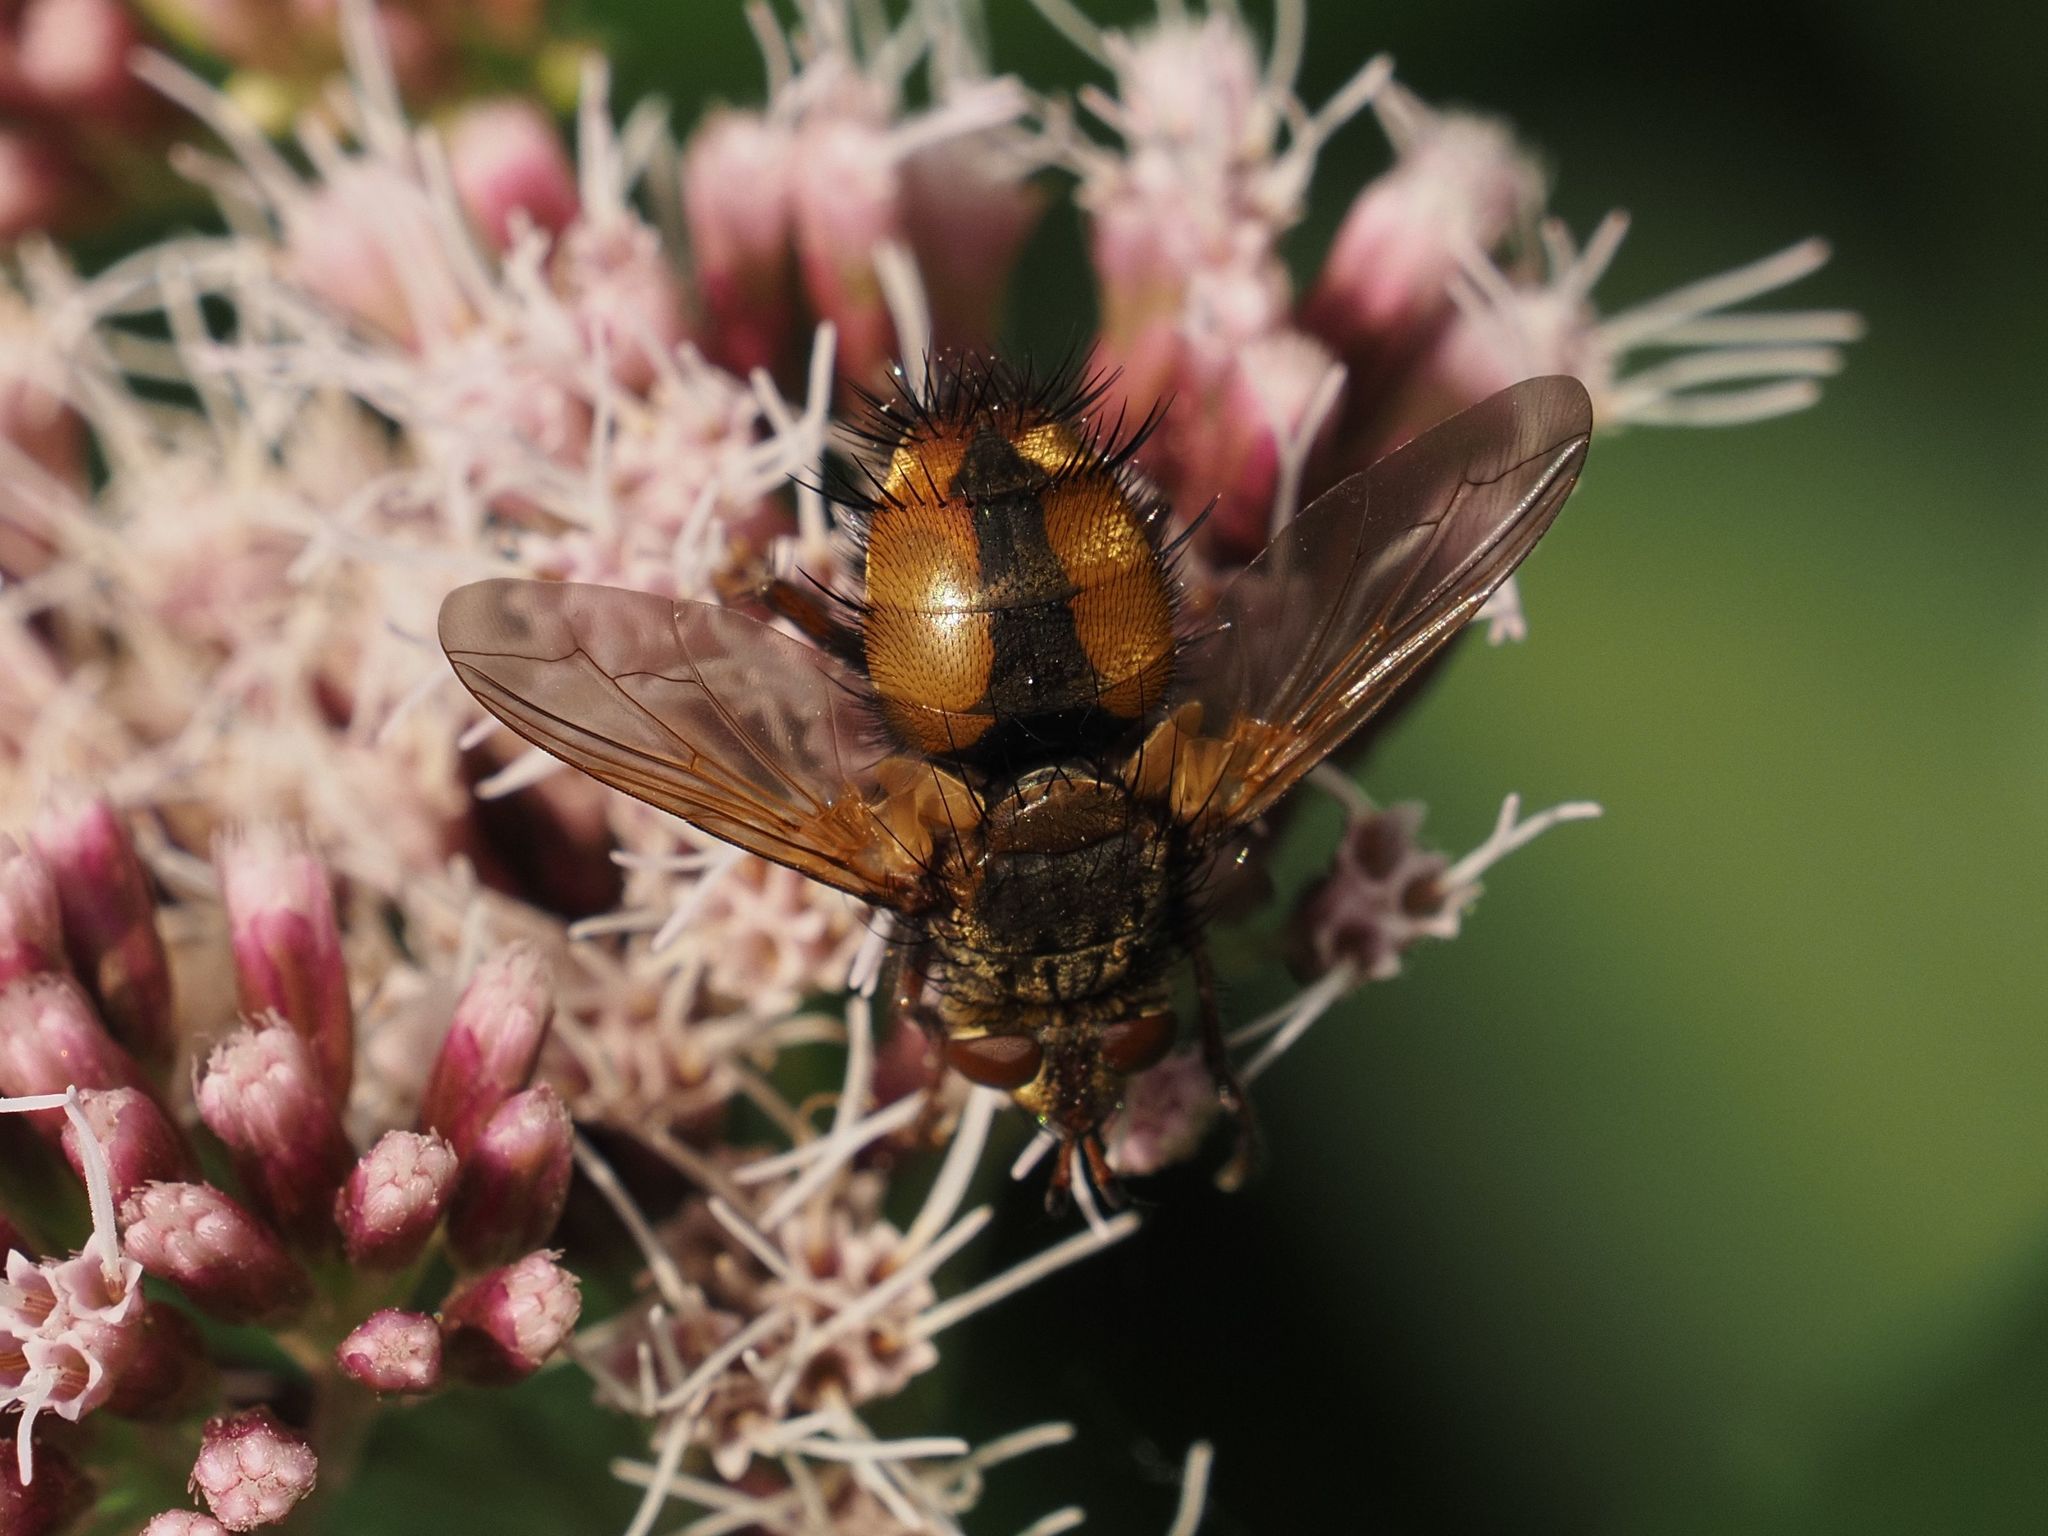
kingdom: Animalia
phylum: Arthropoda
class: Insecta
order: Diptera
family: Tachinidae
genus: Tachina
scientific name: Tachina fera
